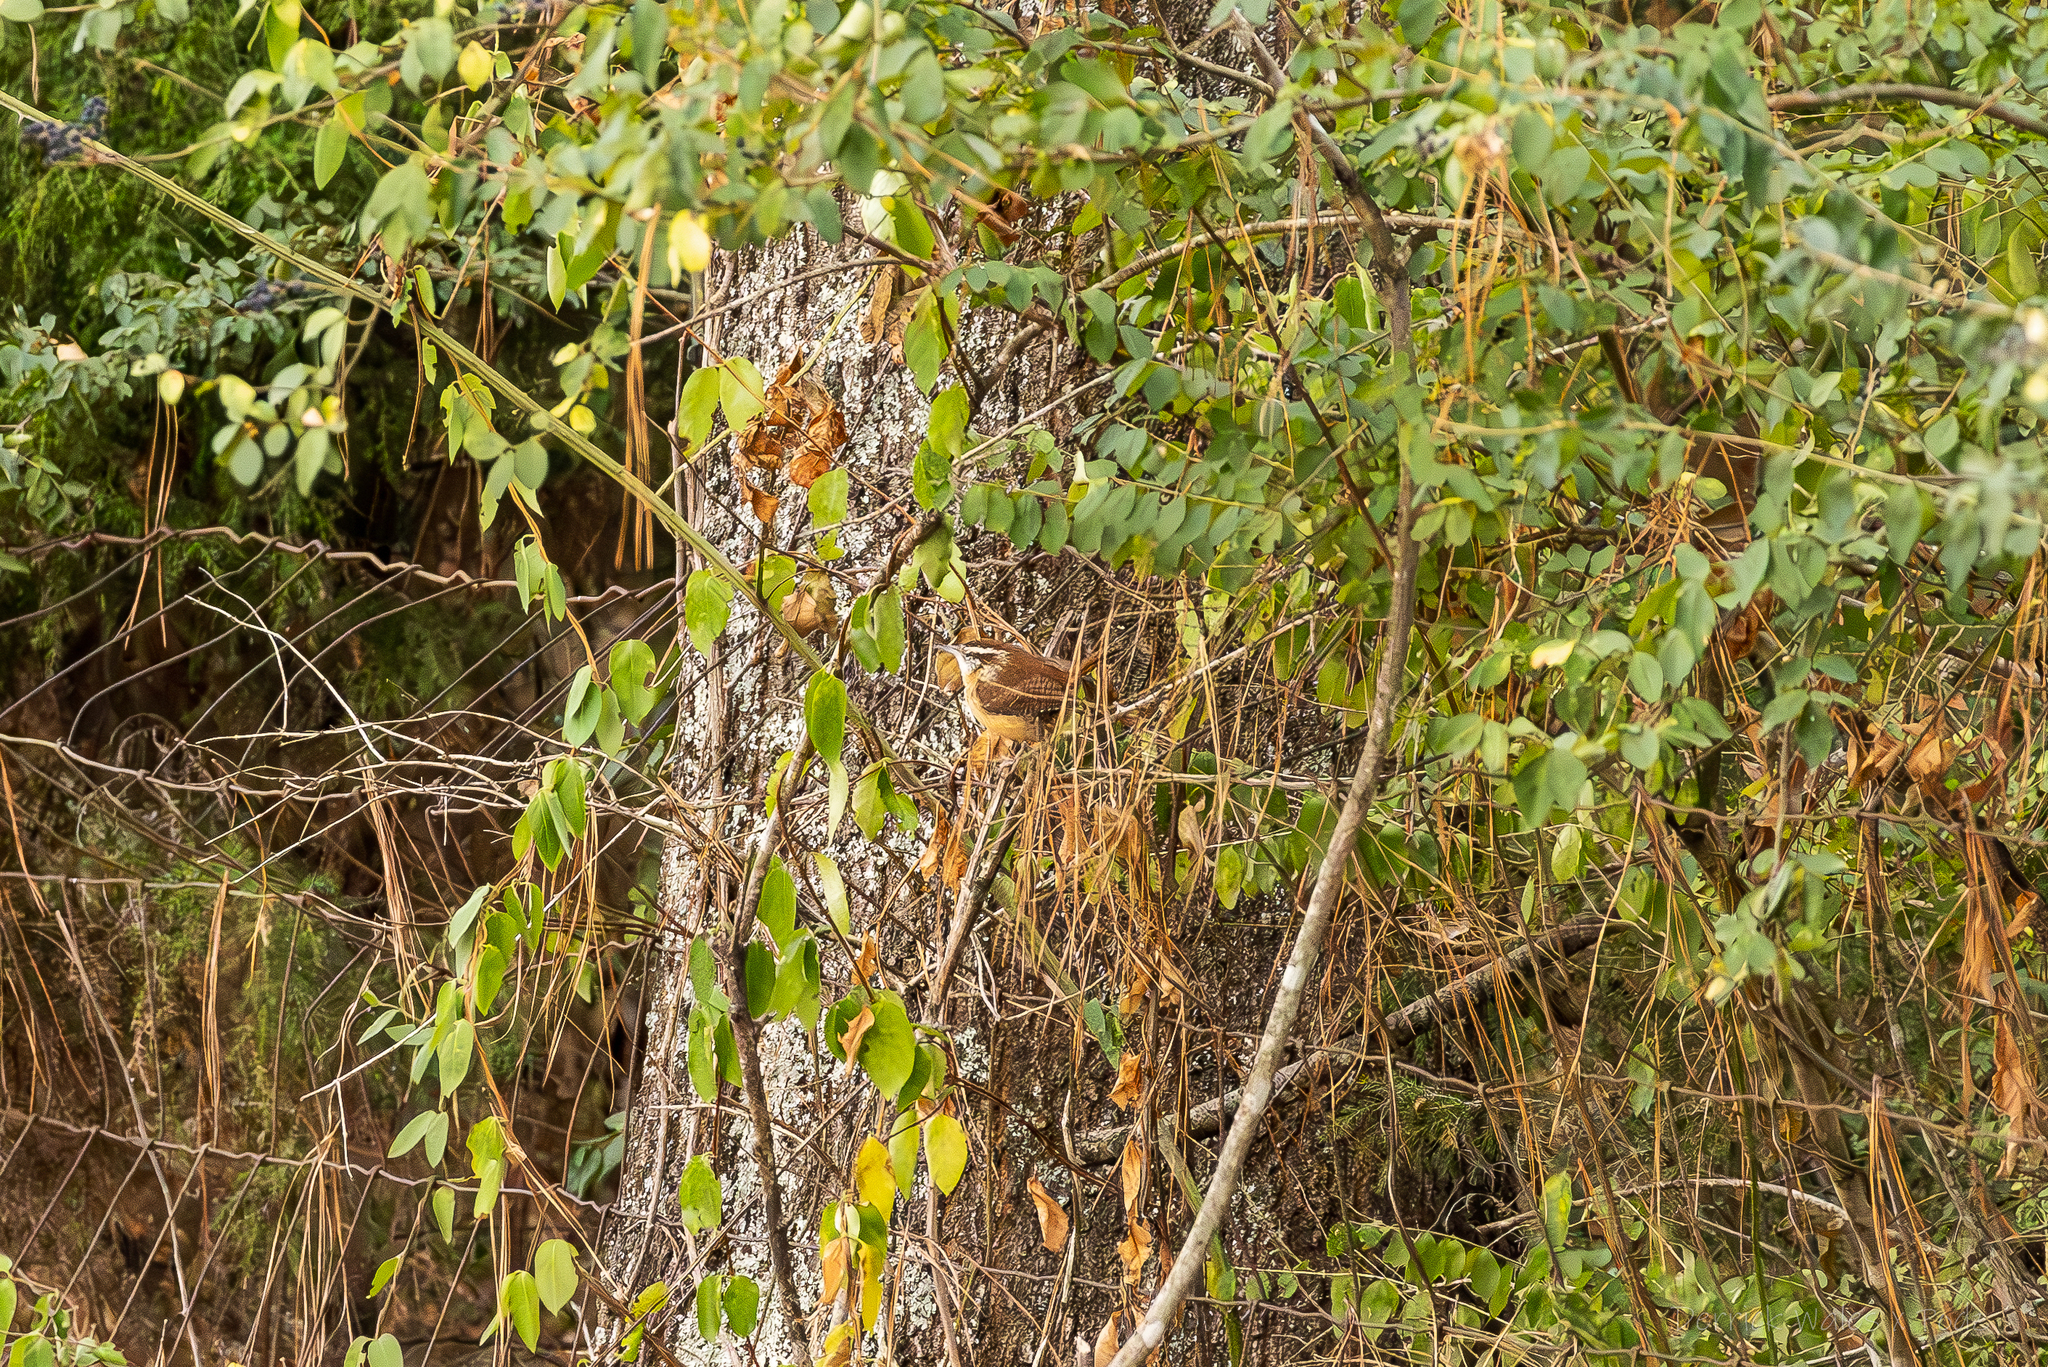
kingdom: Animalia
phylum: Chordata
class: Aves
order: Passeriformes
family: Troglodytidae
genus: Thryothorus
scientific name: Thryothorus ludovicianus
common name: Carolina wren
